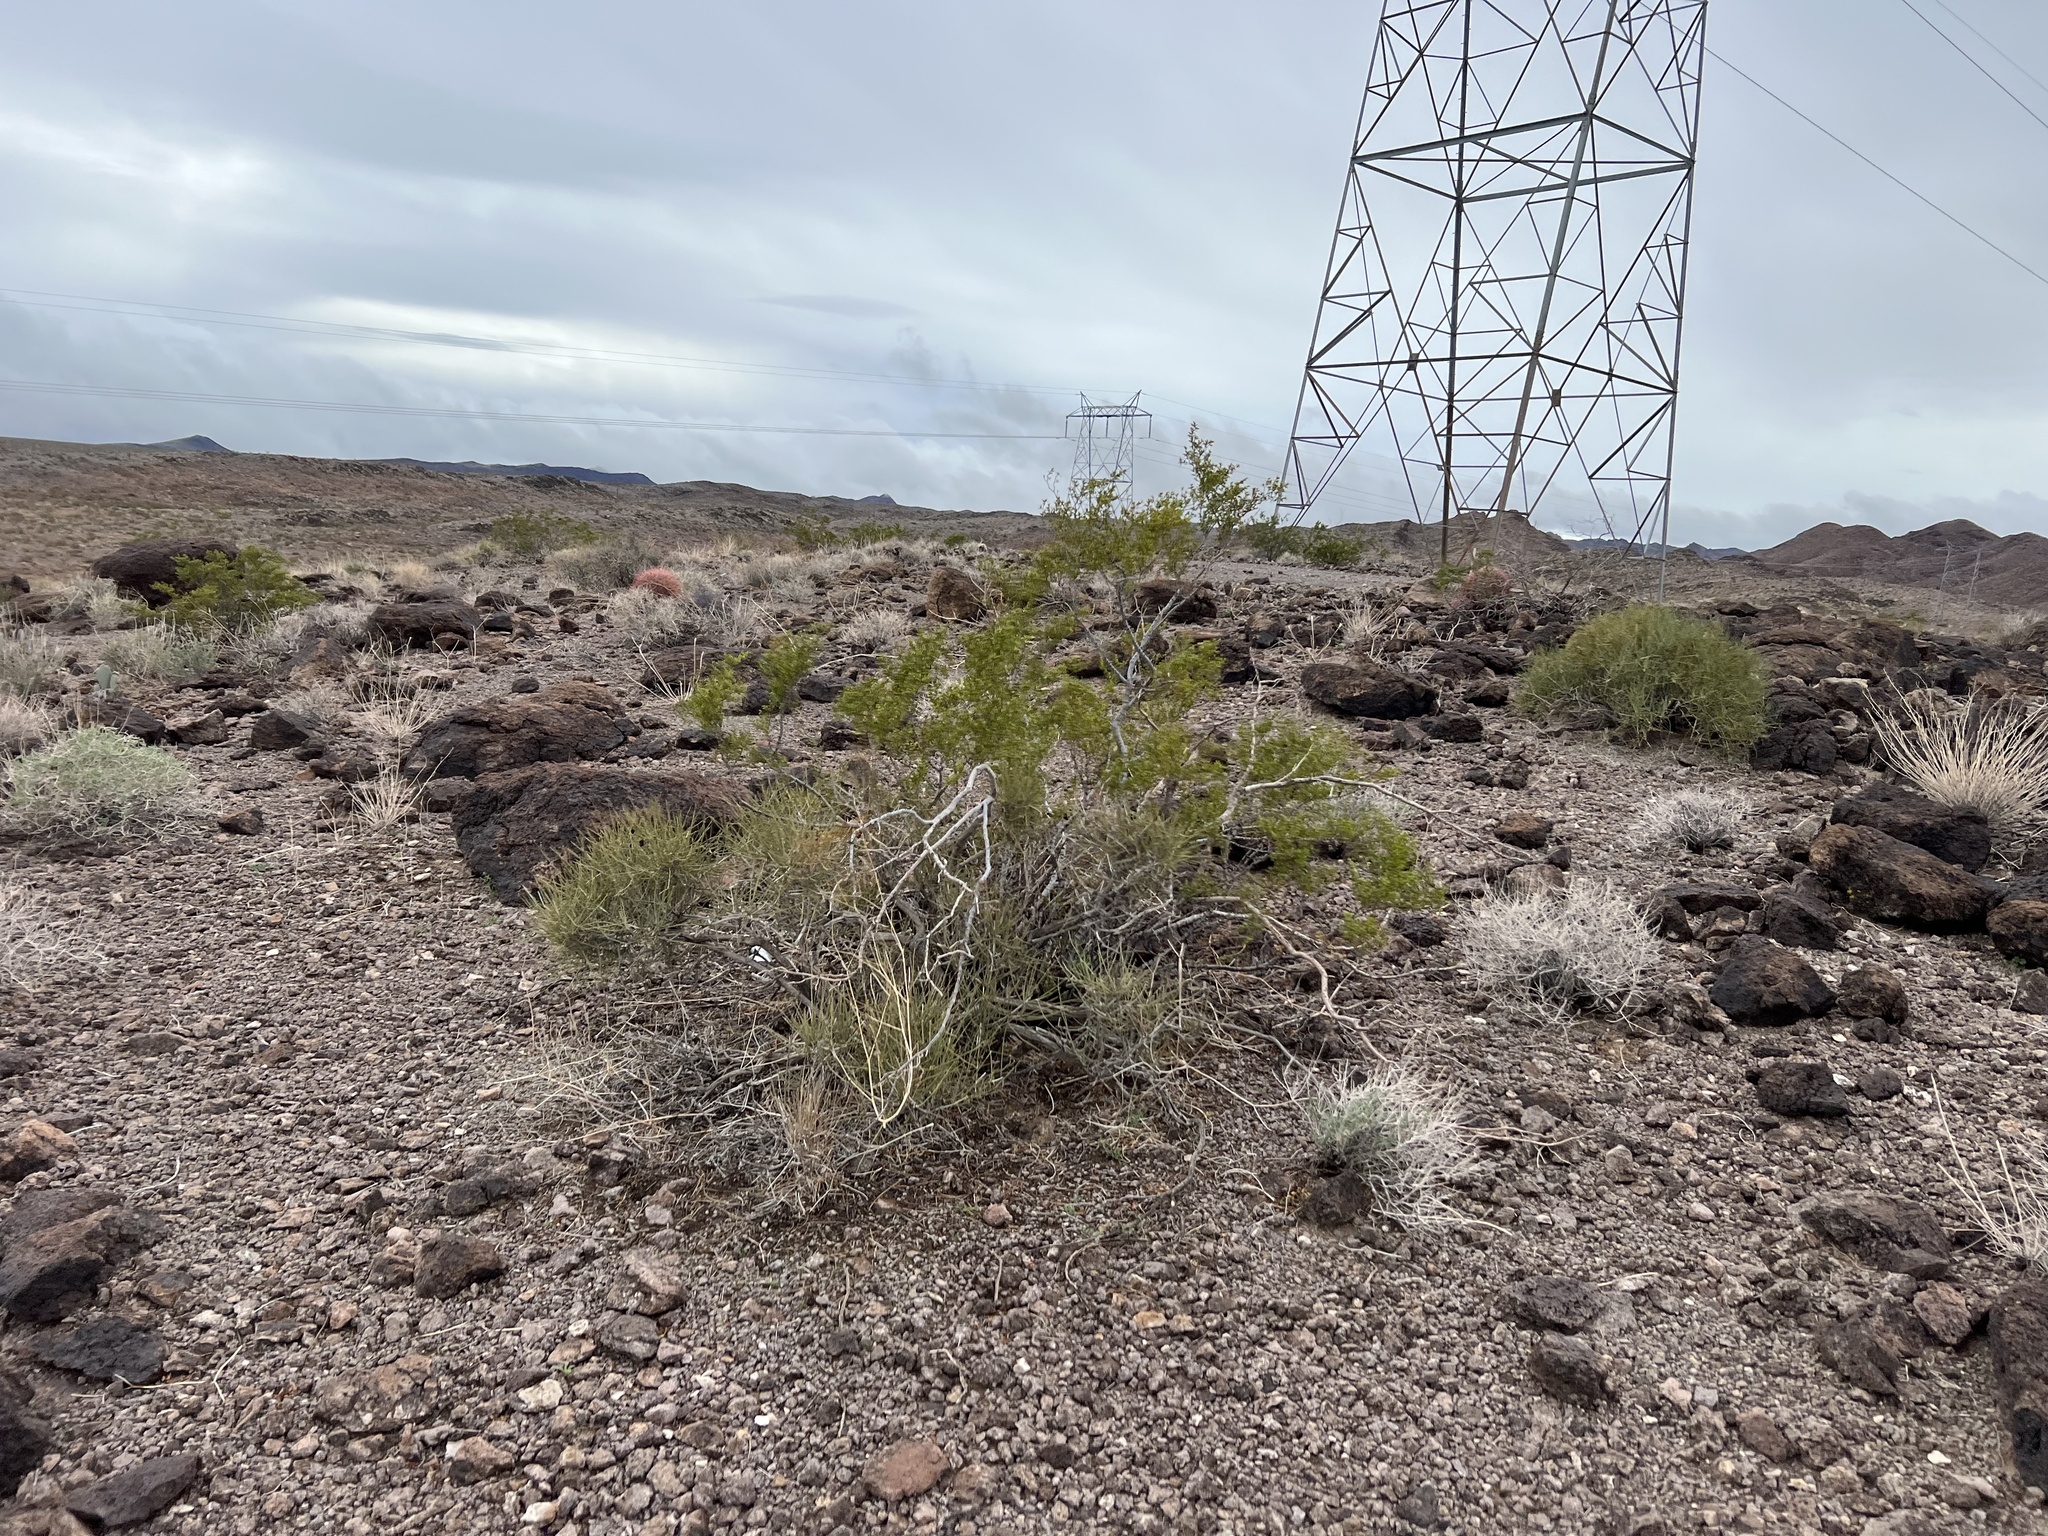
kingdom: Plantae
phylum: Tracheophyta
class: Magnoliopsida
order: Zygophyllales
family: Zygophyllaceae
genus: Larrea
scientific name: Larrea tridentata
